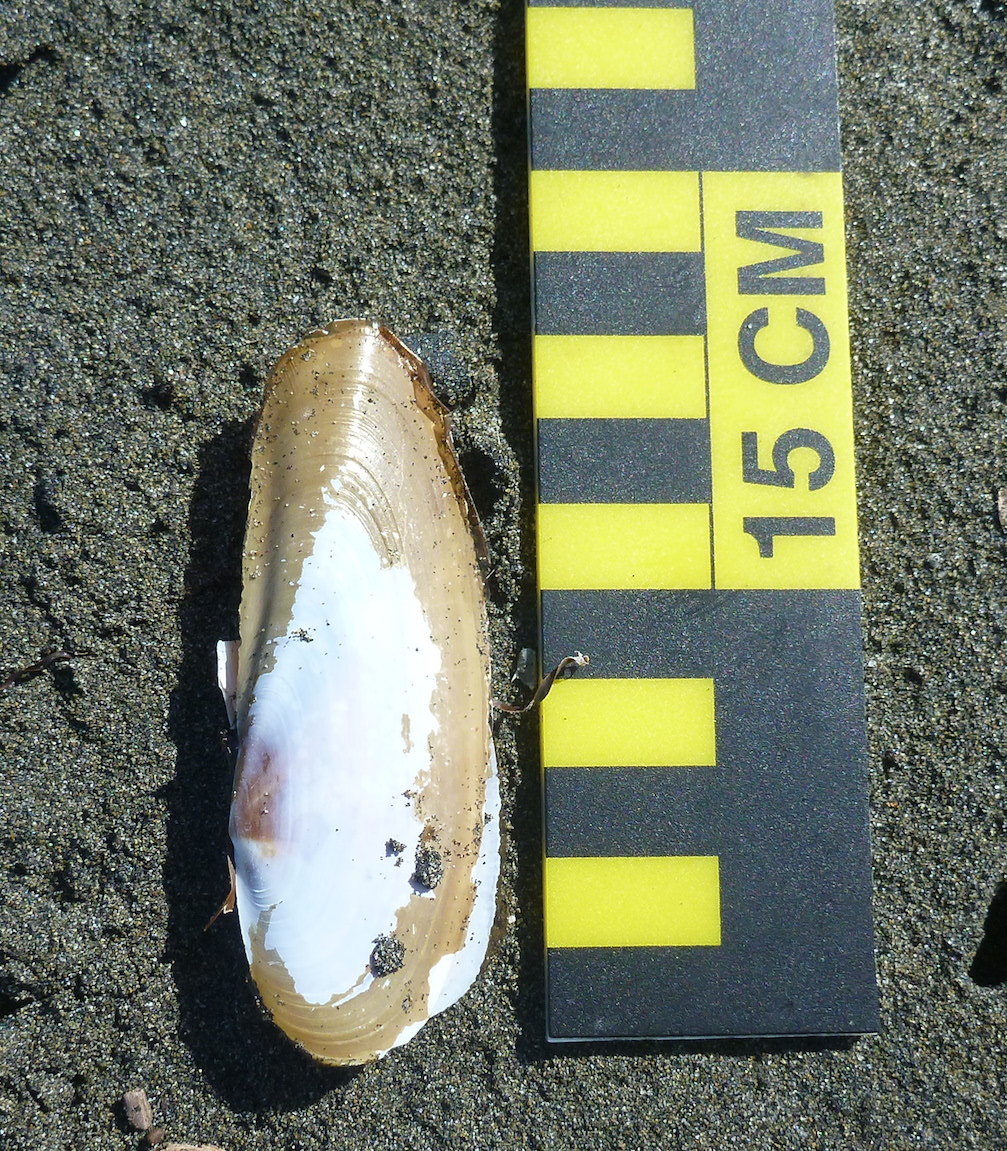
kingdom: Animalia
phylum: Mollusca
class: Bivalvia
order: Adapedonta
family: Pharidae
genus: Siliqua
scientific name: Siliqua patula
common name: Pacific razor clam
